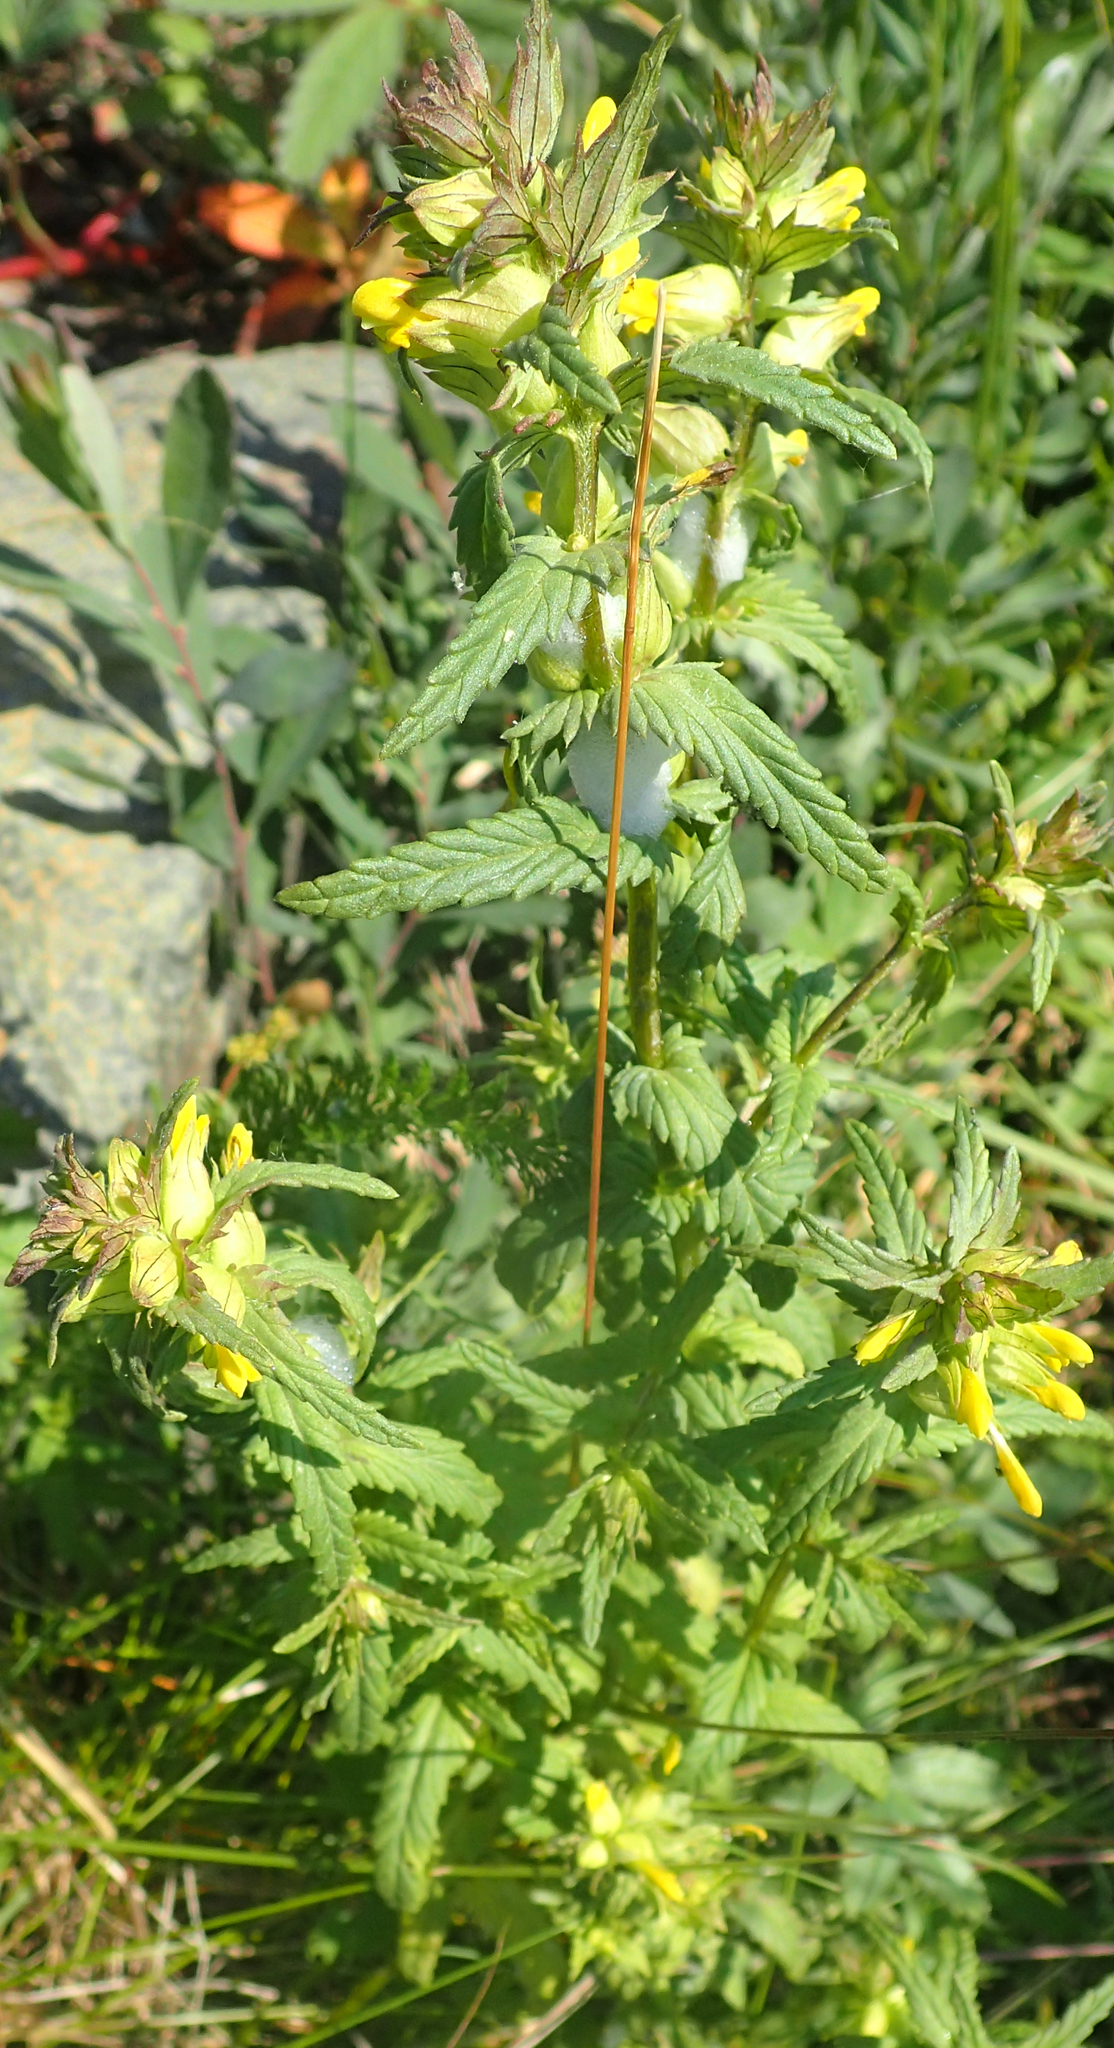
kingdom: Plantae
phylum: Tracheophyta
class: Magnoliopsida
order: Lamiales
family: Orobanchaceae
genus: Rhinanthus
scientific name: Rhinanthus minor
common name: Yellow-rattle
